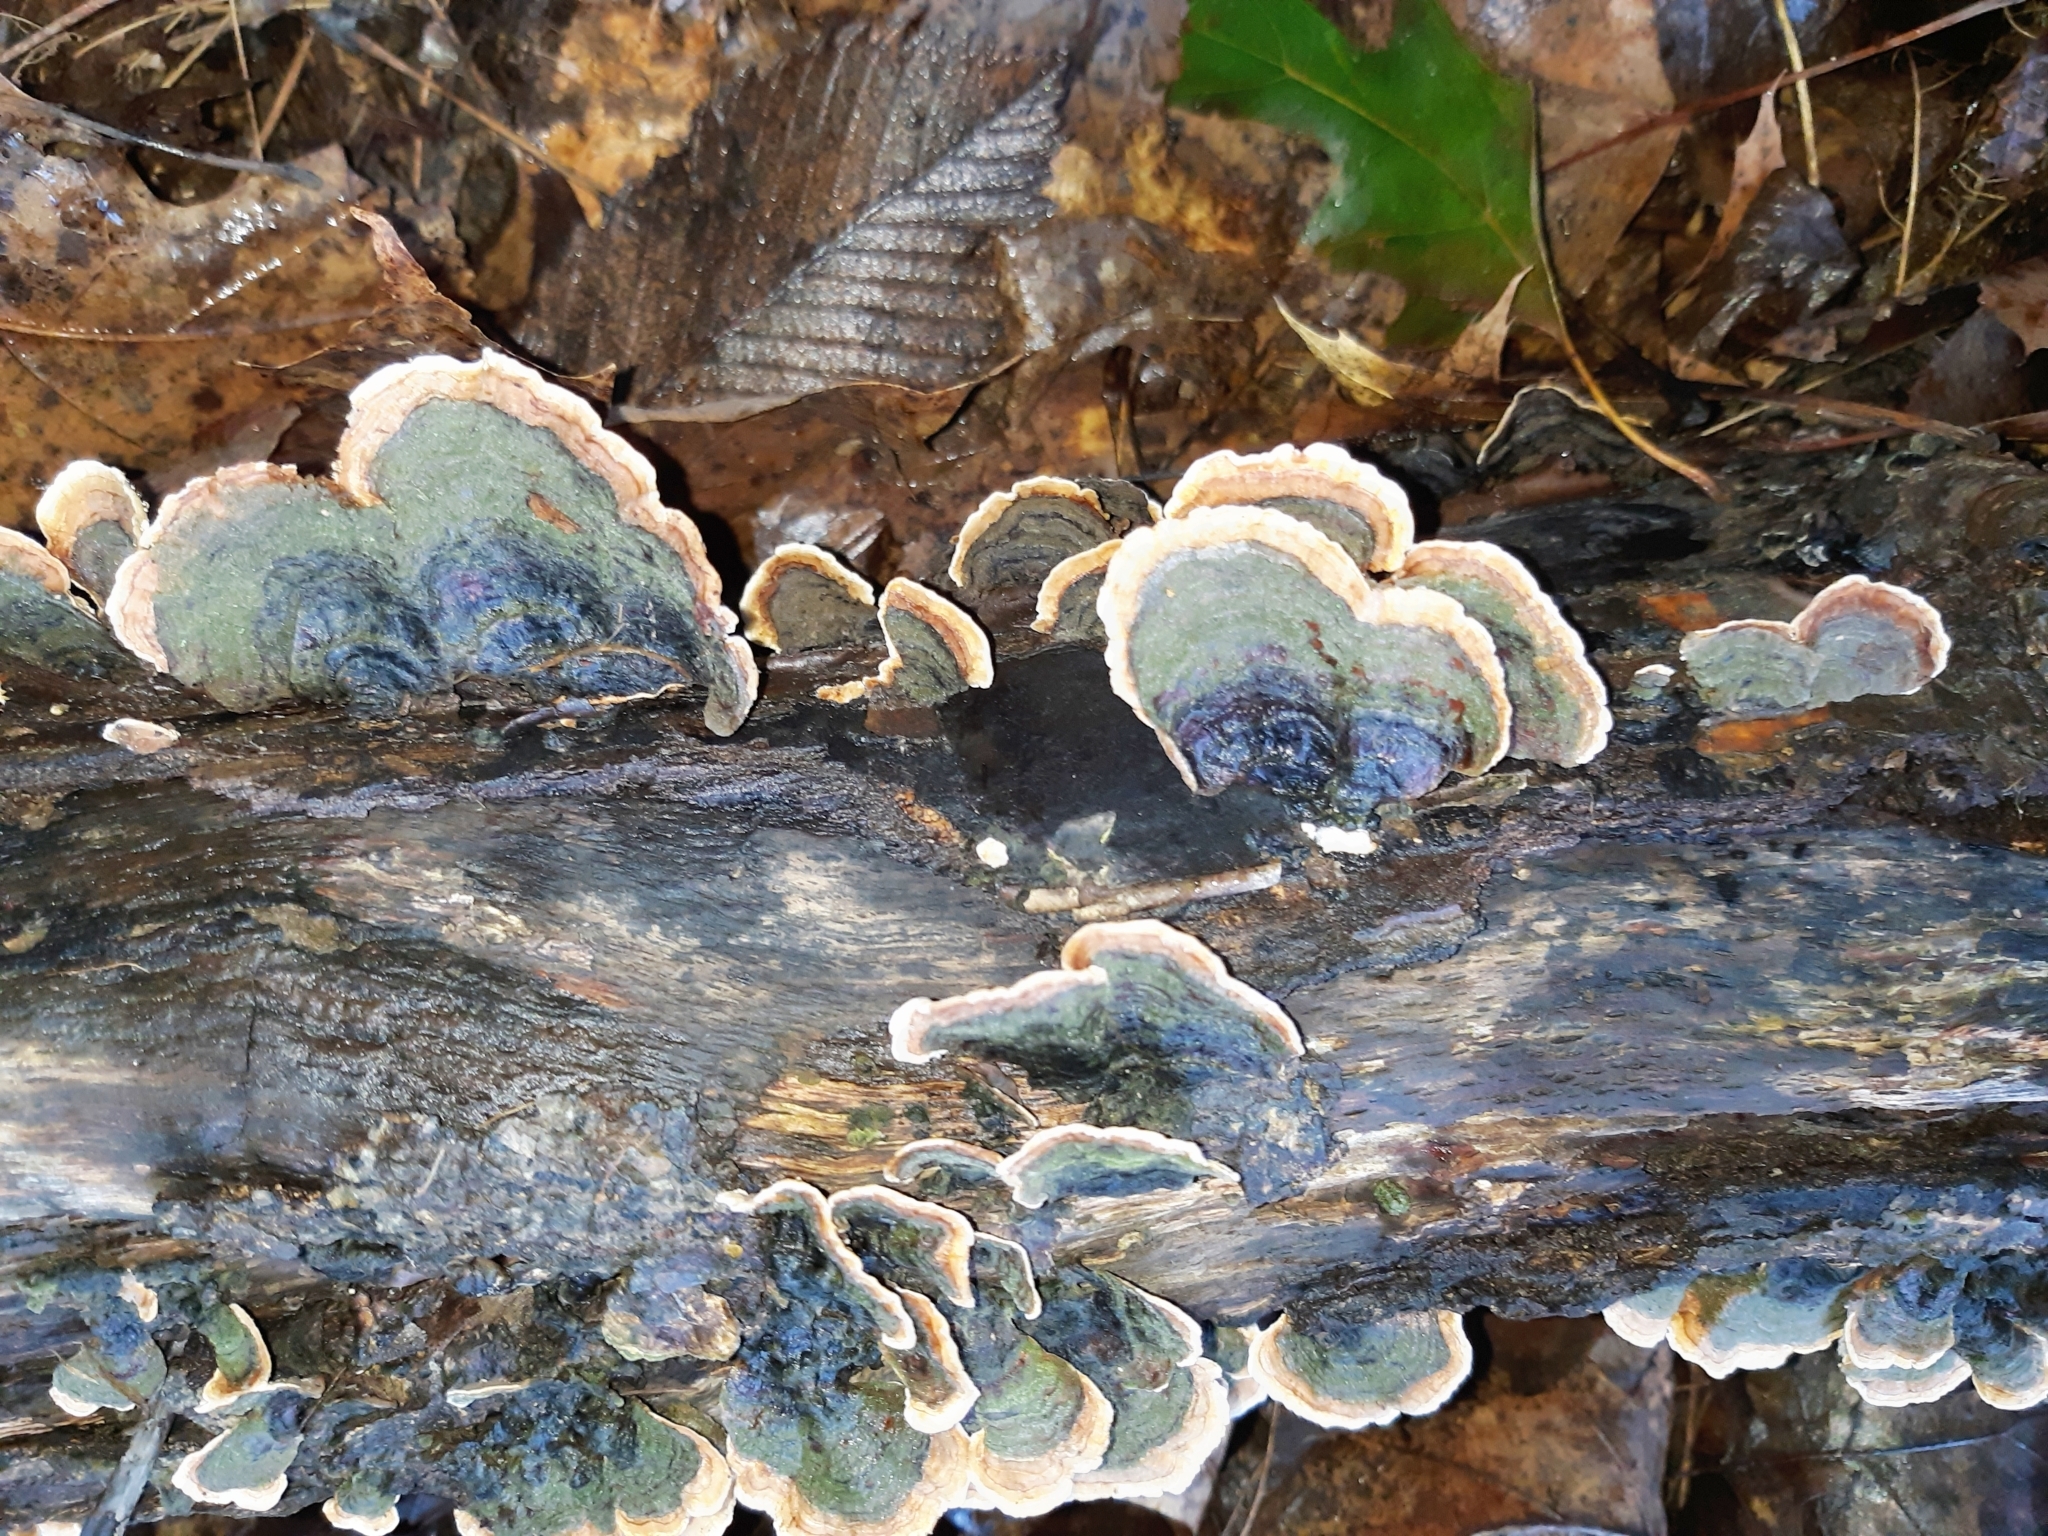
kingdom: Fungi
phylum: Basidiomycota
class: Agaricomycetes
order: Russulales
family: Stereaceae
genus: Stereum
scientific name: Stereum ostrea
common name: False turkeytail
